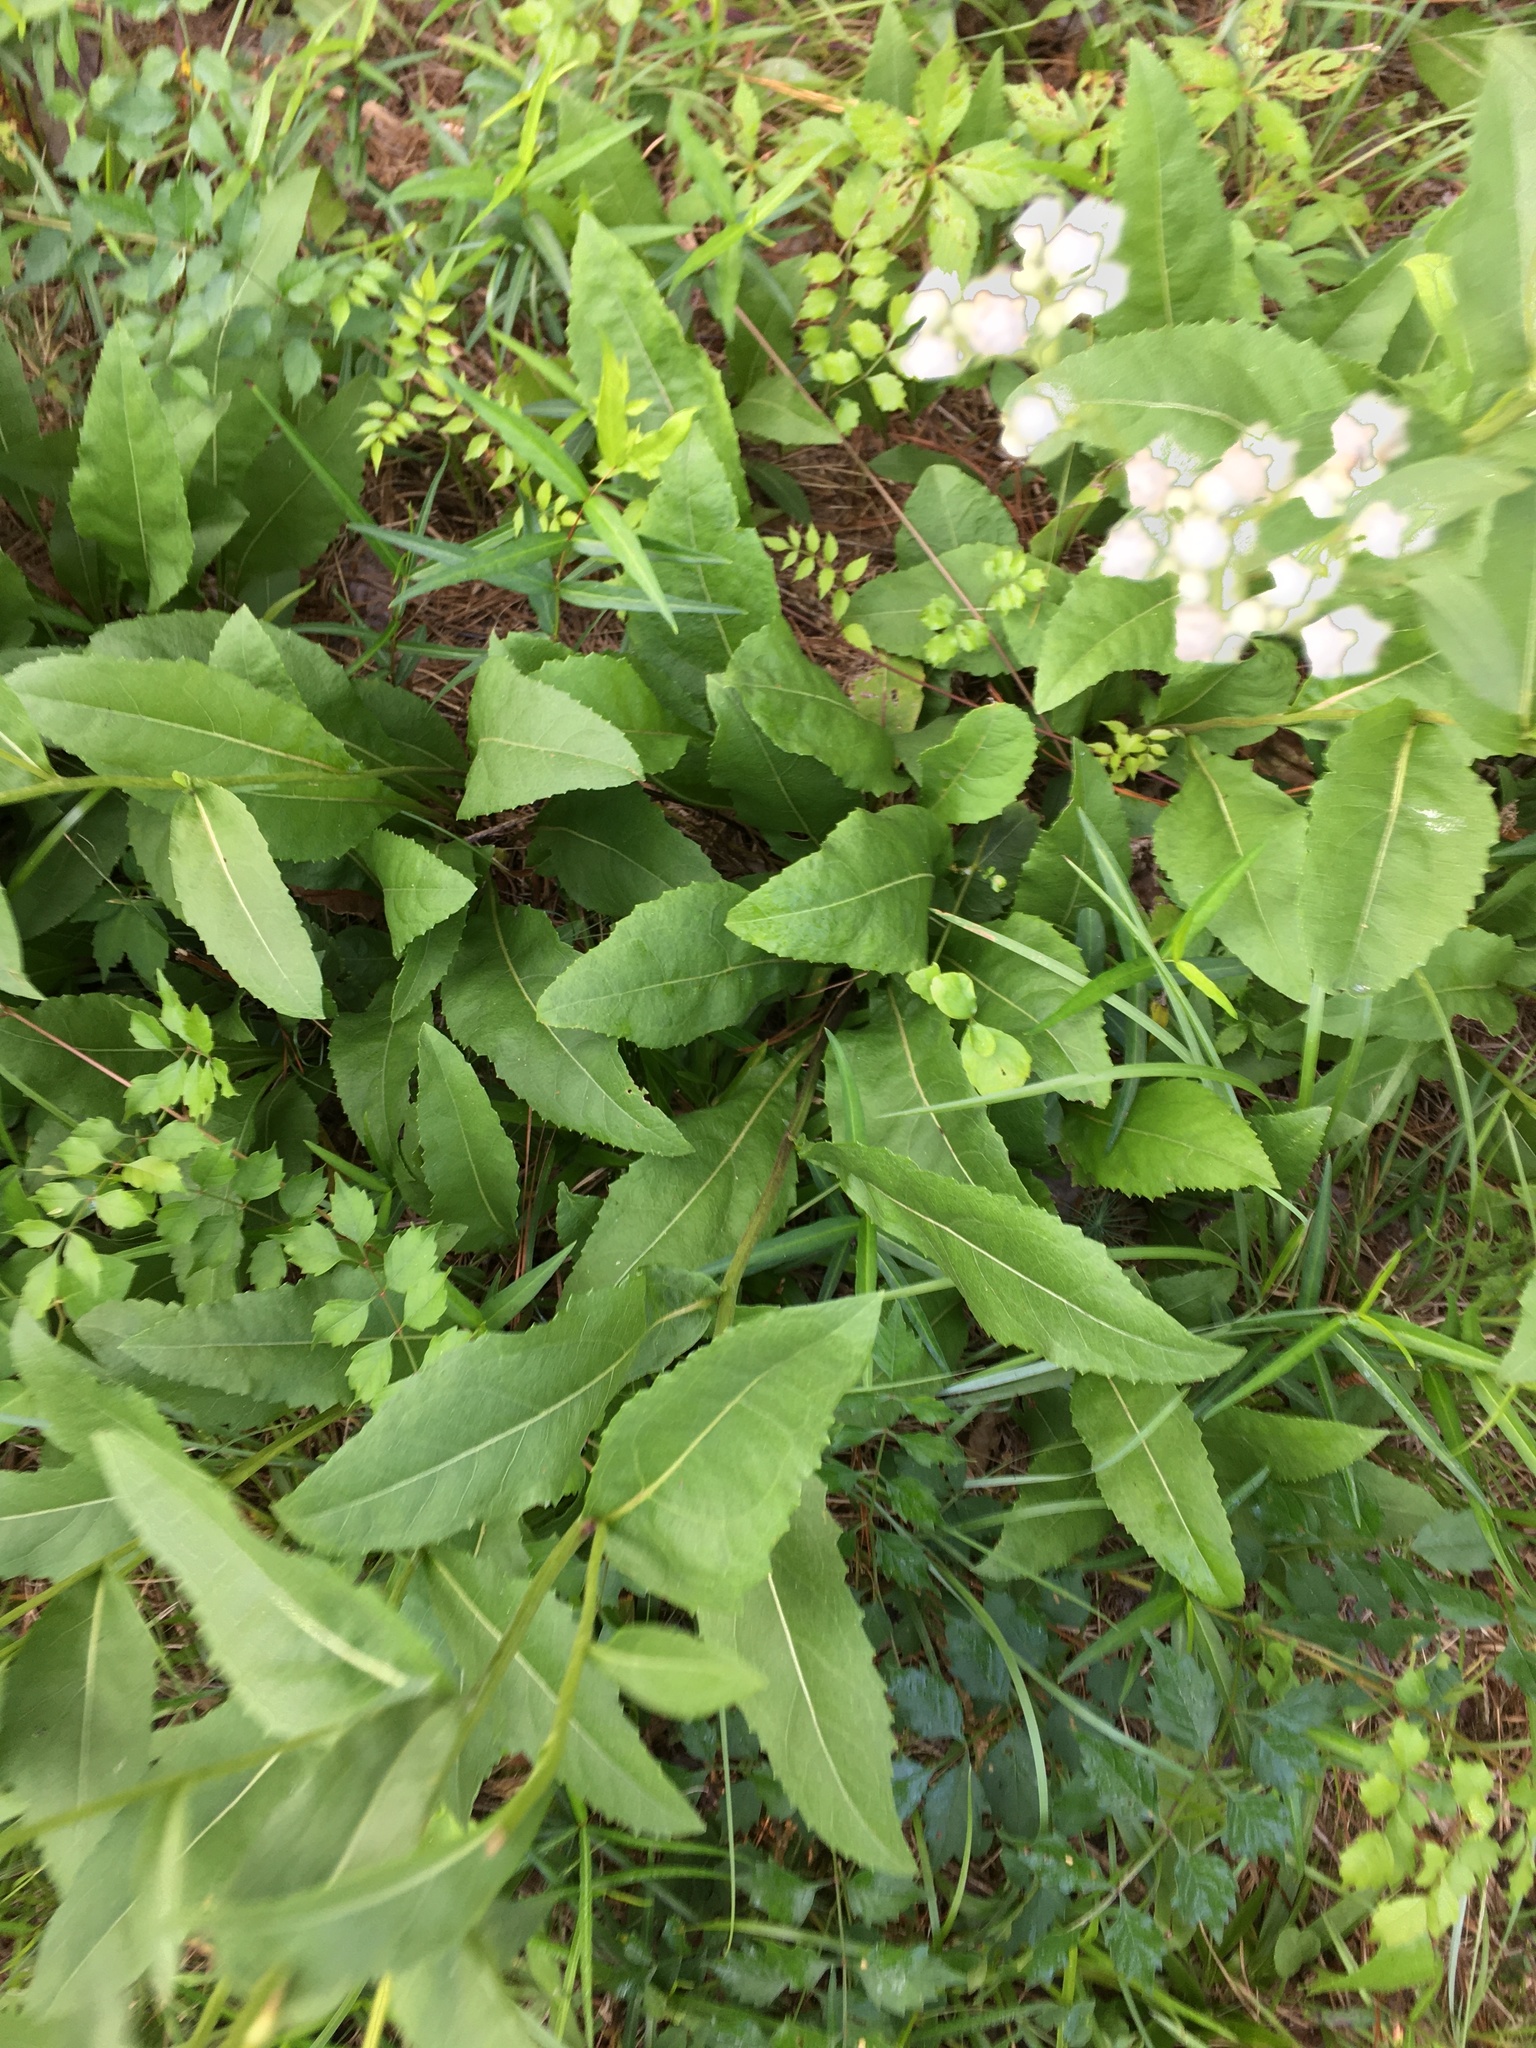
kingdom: Plantae
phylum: Tracheophyta
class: Magnoliopsida
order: Asterales
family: Asteraceae
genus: Parthenium
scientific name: Parthenium integrifolium
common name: American feverfew
